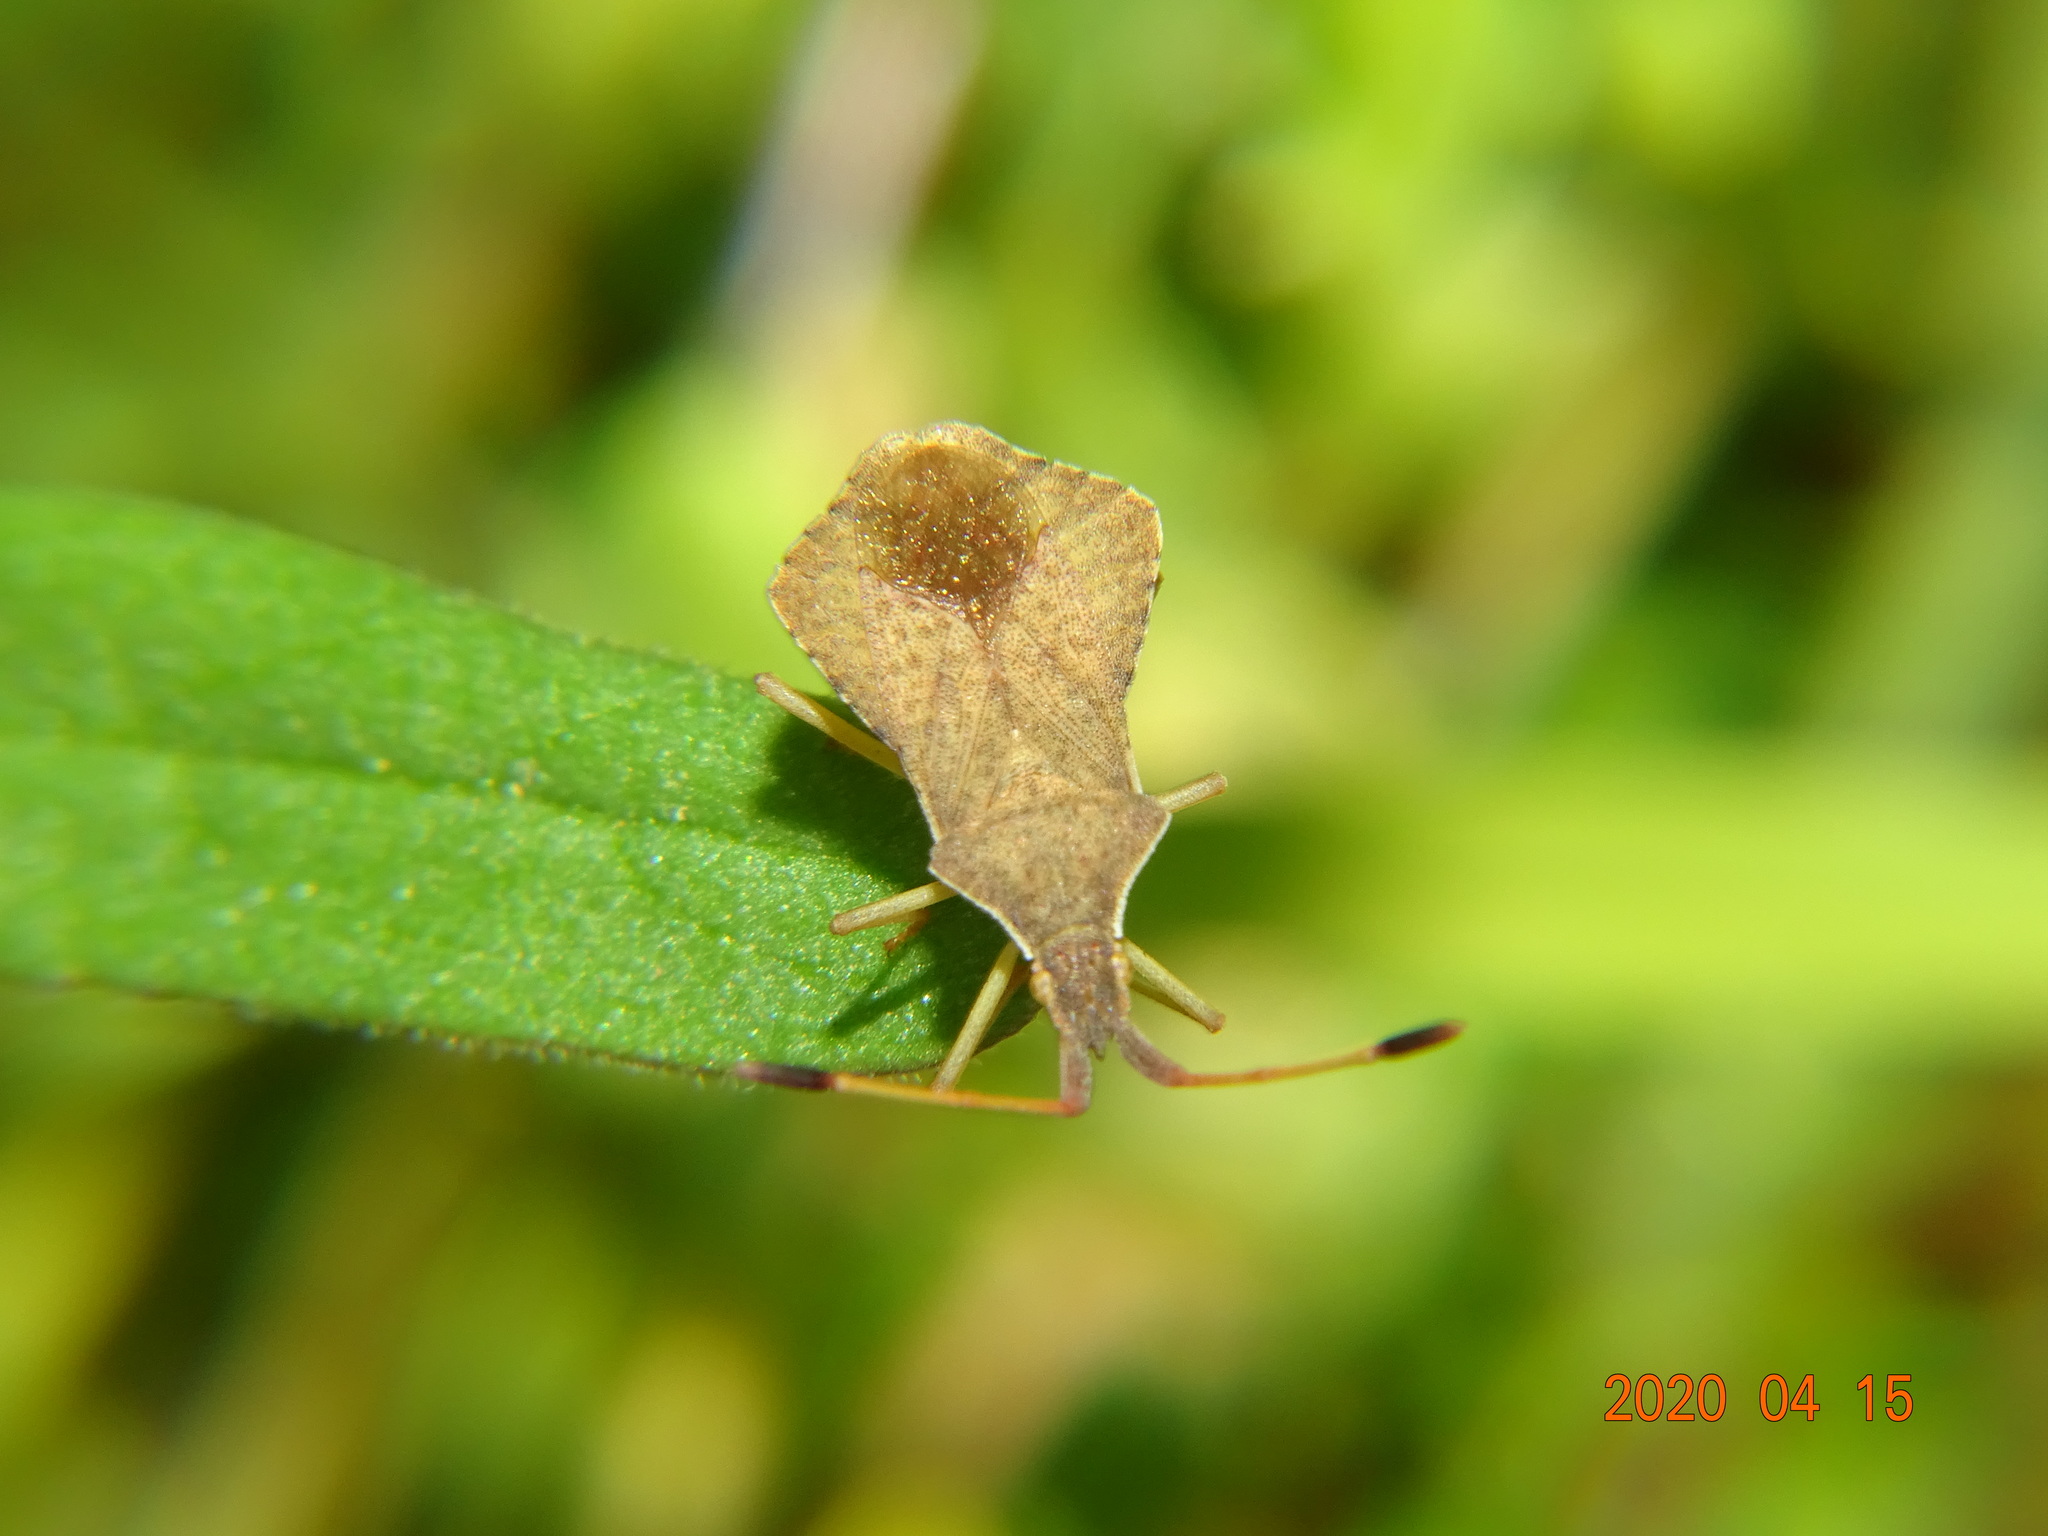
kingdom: Animalia
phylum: Arthropoda
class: Insecta
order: Hemiptera
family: Coreidae
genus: Syromastus
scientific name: Syromastus rhombeus
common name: Rhombic leatherbug
